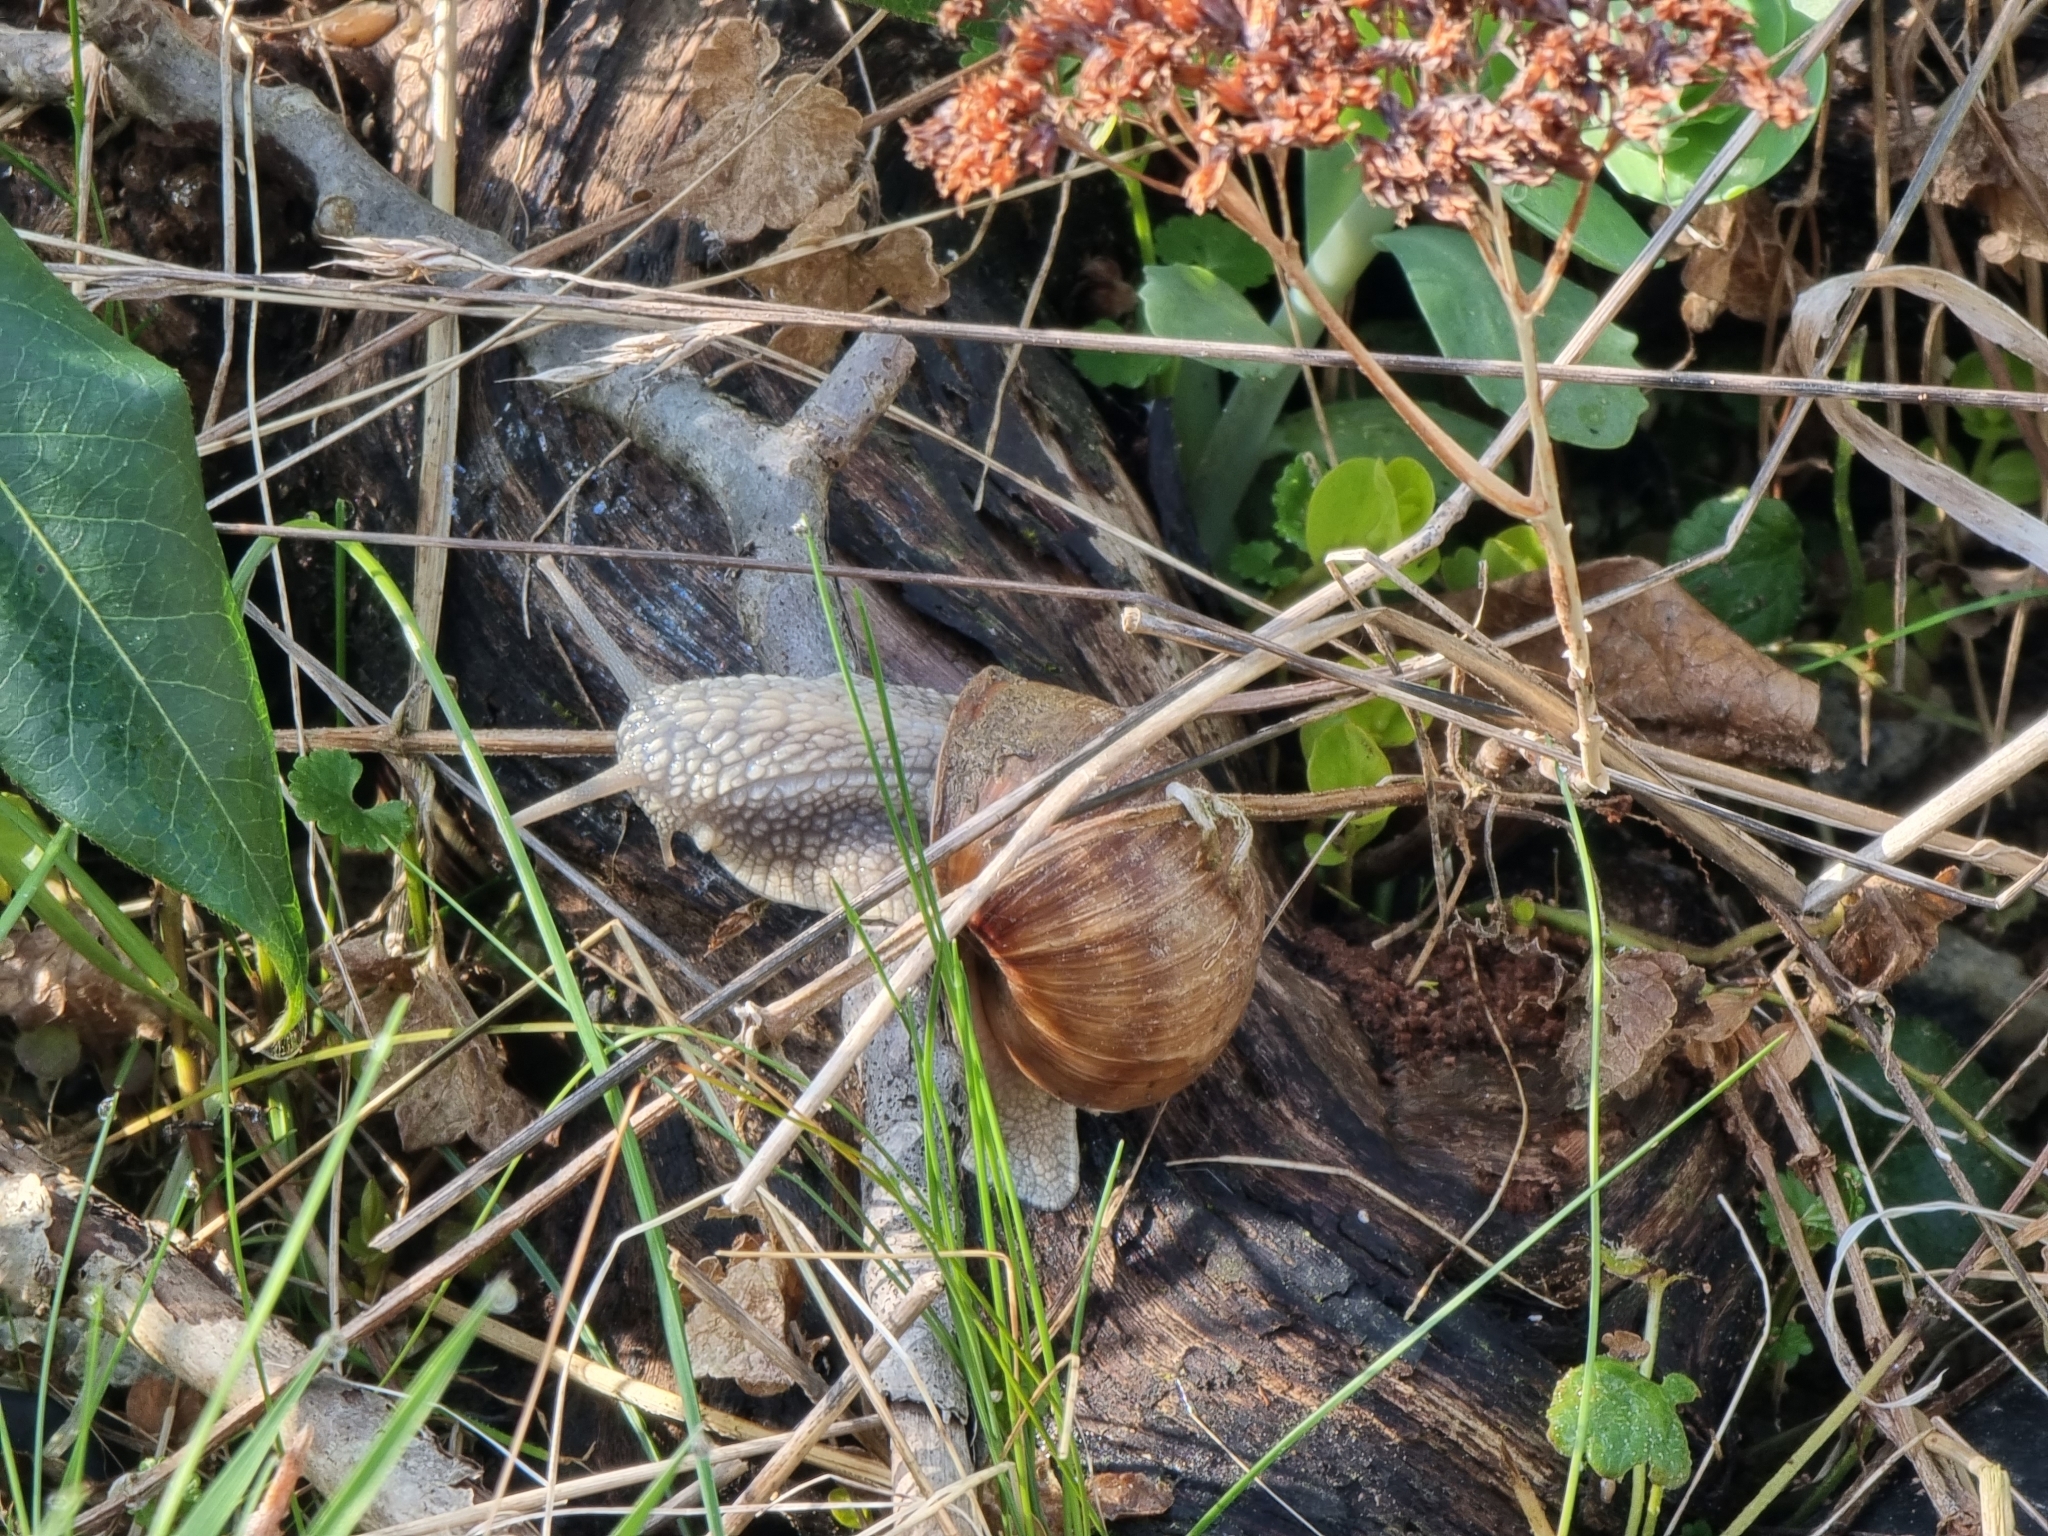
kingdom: Animalia
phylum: Mollusca
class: Gastropoda
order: Stylommatophora
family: Helicidae
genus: Helix
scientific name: Helix pomatia
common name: Roman snail
